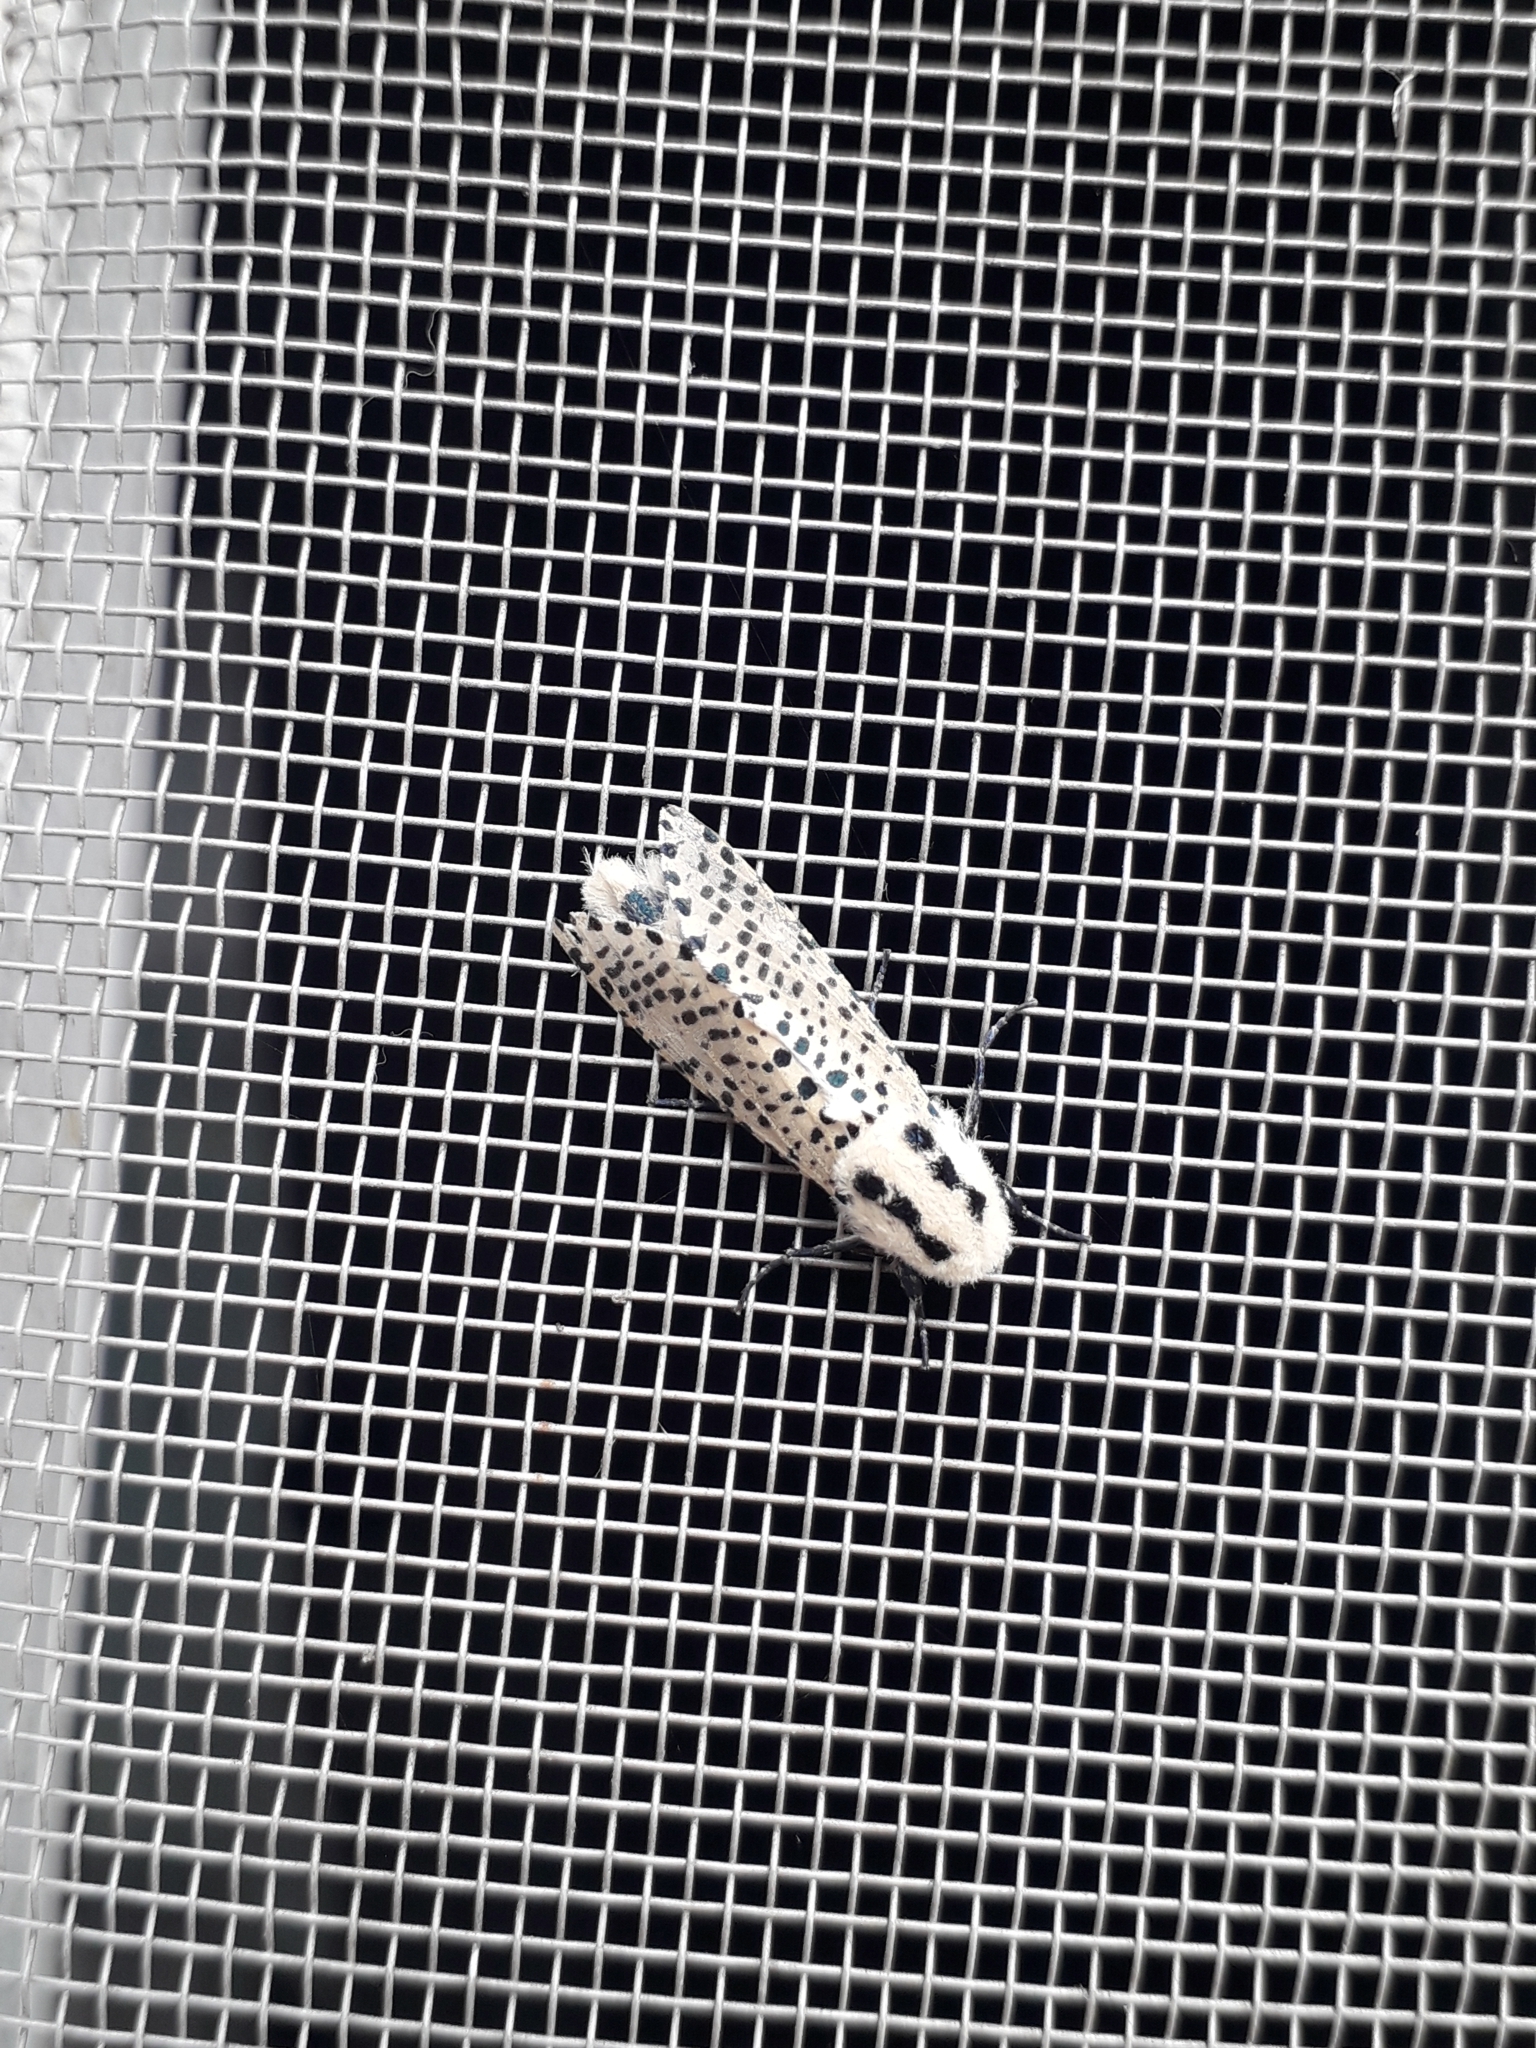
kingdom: Animalia
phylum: Arthropoda
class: Insecta
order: Lepidoptera
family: Cossidae
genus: Zeuzera
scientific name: Zeuzera pyrina
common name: Leopard moth
